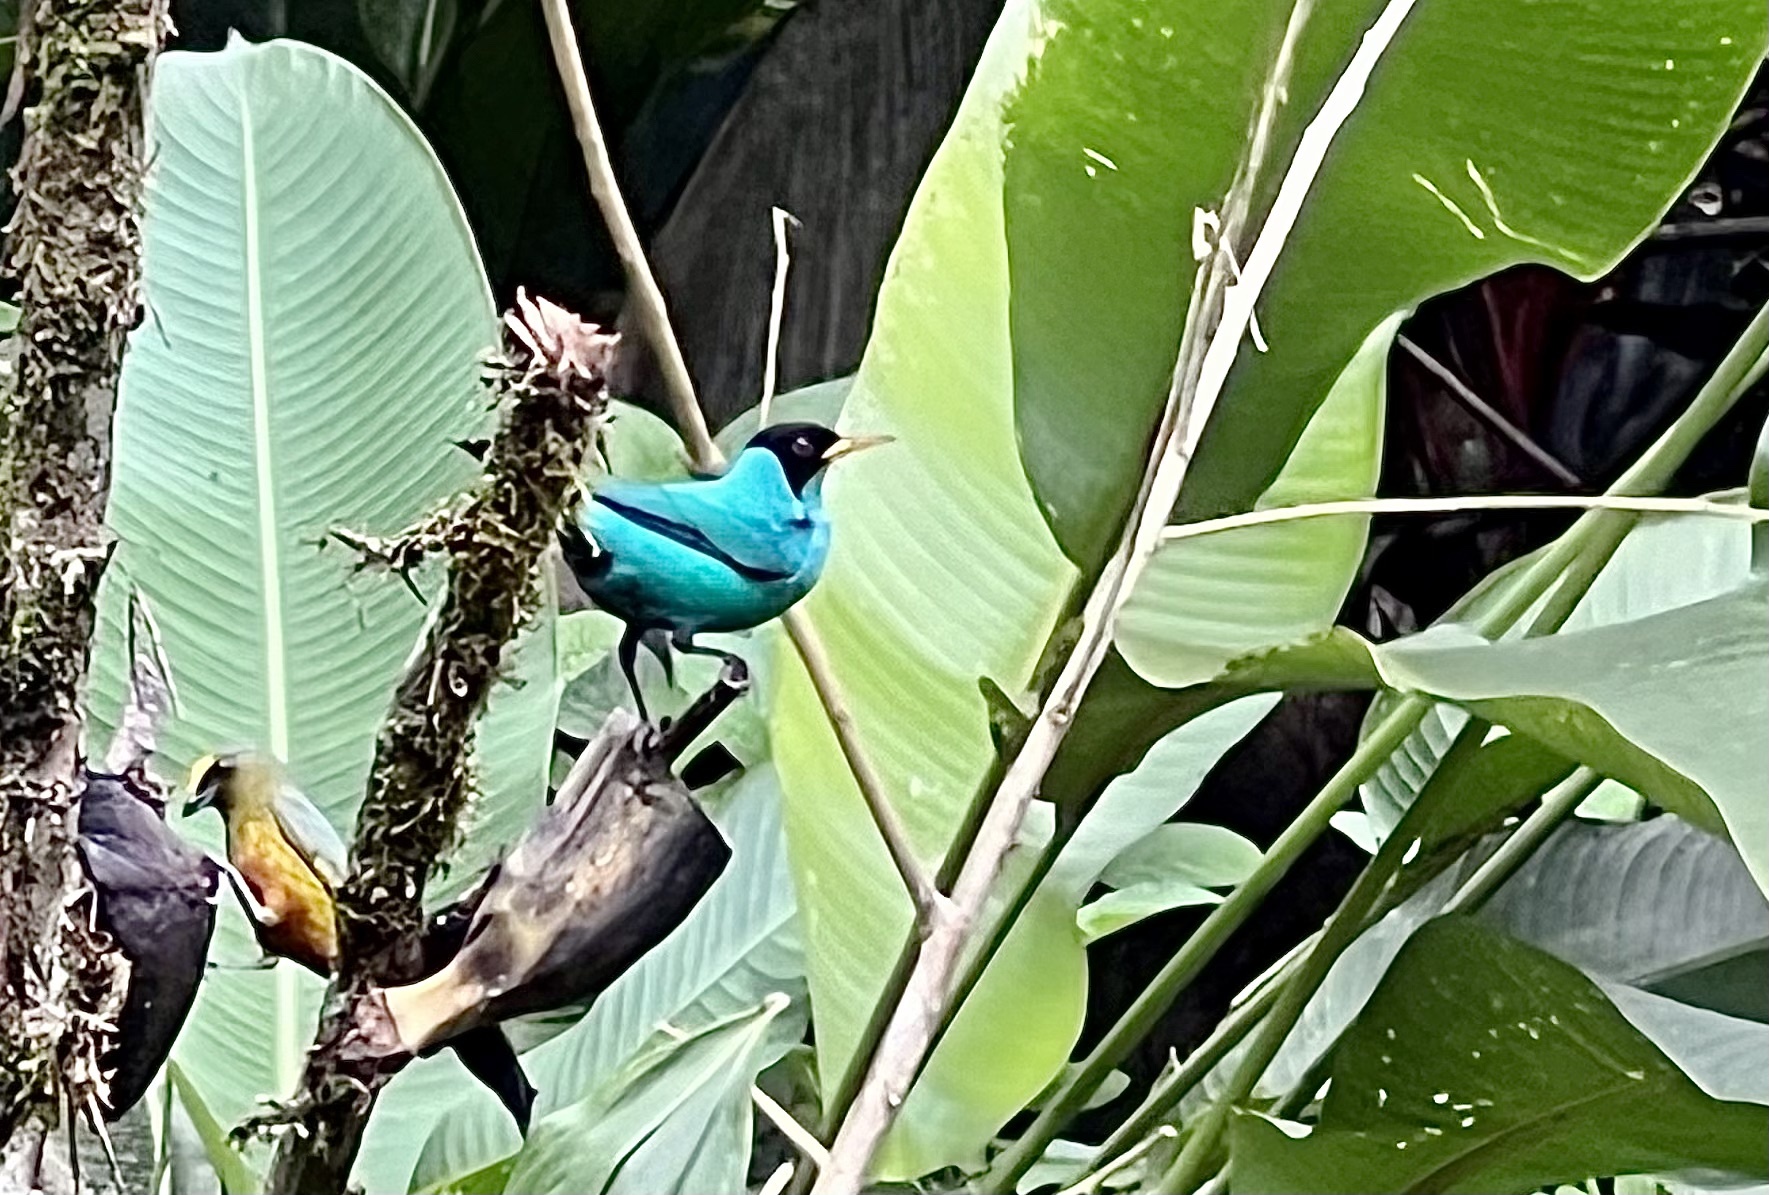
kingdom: Animalia
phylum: Chordata
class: Aves
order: Passeriformes
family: Thraupidae
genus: Chlorophanes
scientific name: Chlorophanes spiza
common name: Green honeycreeper
